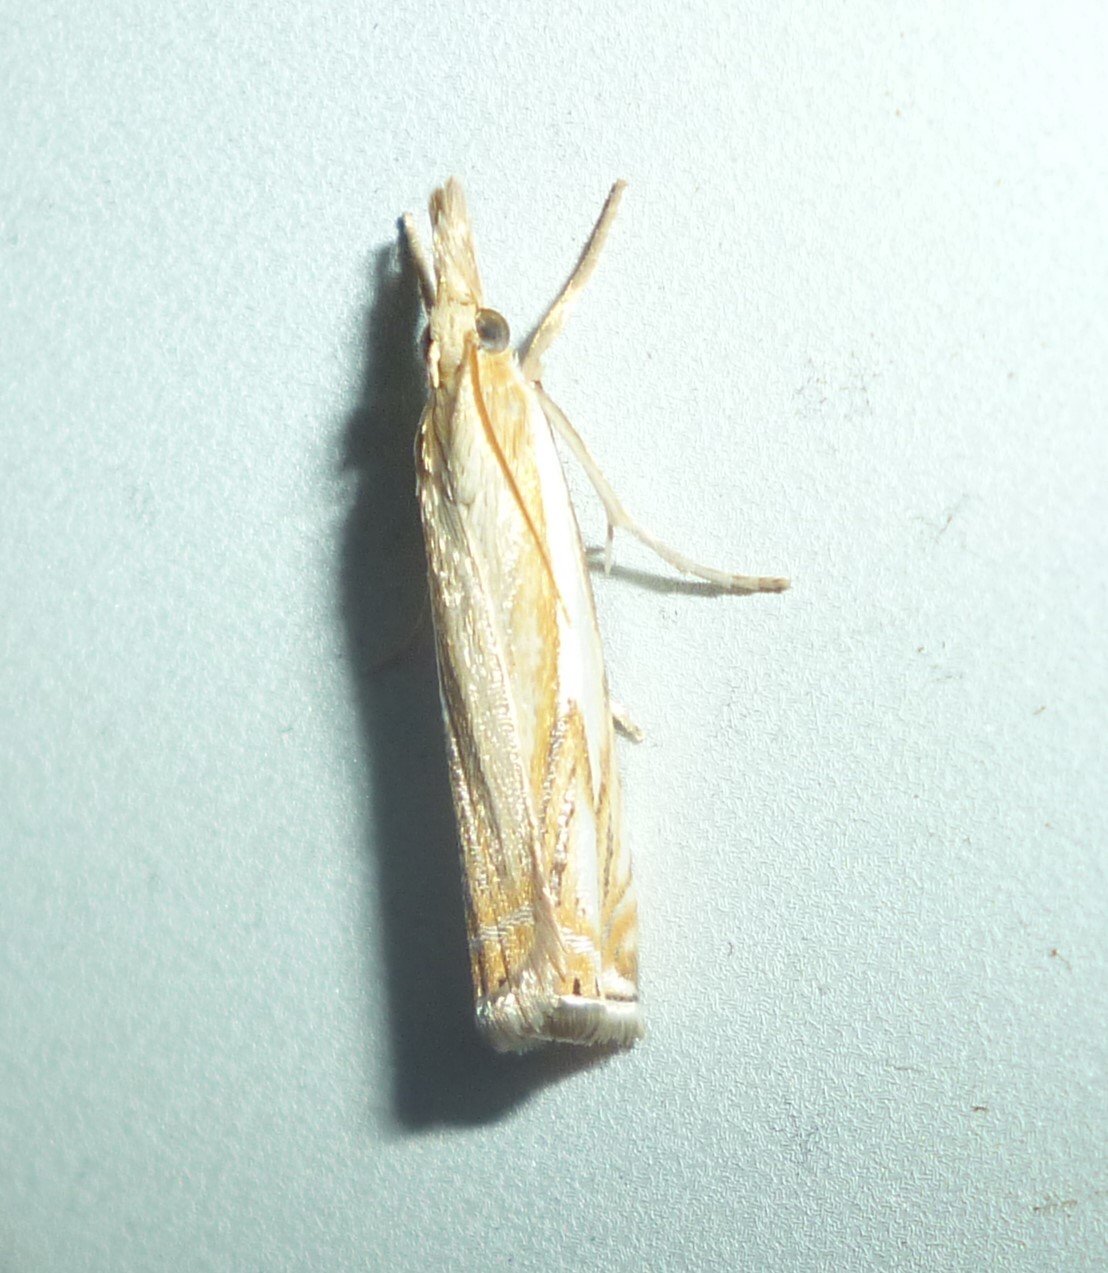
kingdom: Animalia
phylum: Arthropoda
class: Insecta
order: Lepidoptera
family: Crambidae
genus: Crambus
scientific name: Crambus agitatellus
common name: Double-banded grass-veneer
